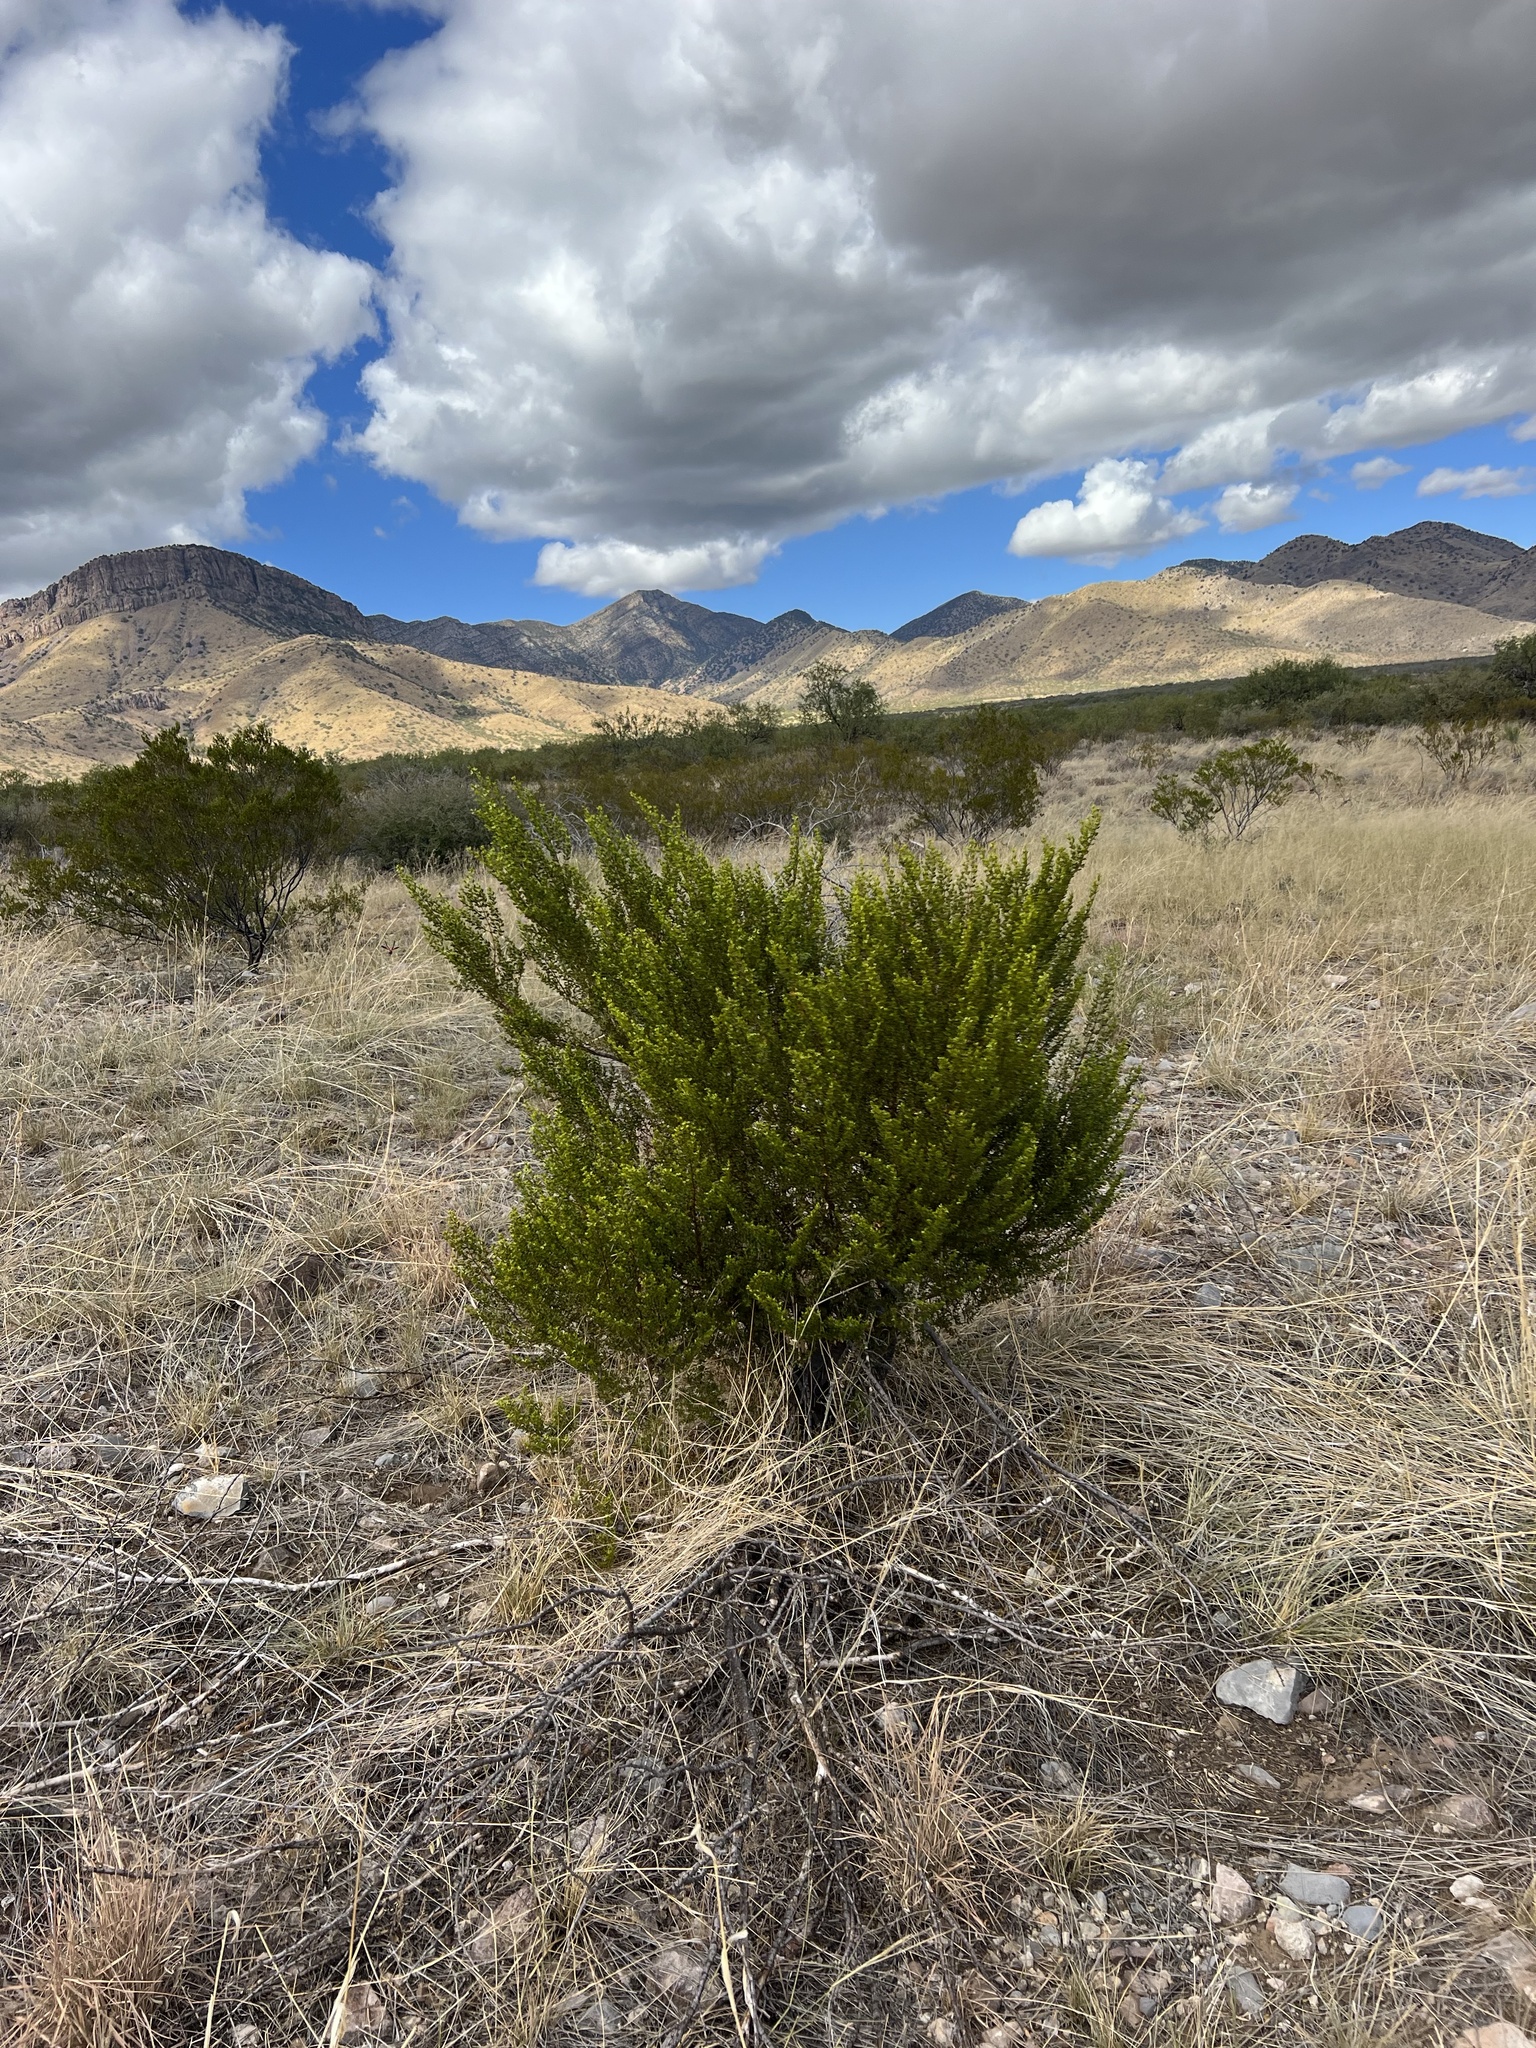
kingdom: Plantae
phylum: Tracheophyta
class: Magnoliopsida
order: Zygophyllales
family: Zygophyllaceae
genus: Larrea
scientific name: Larrea tridentata
